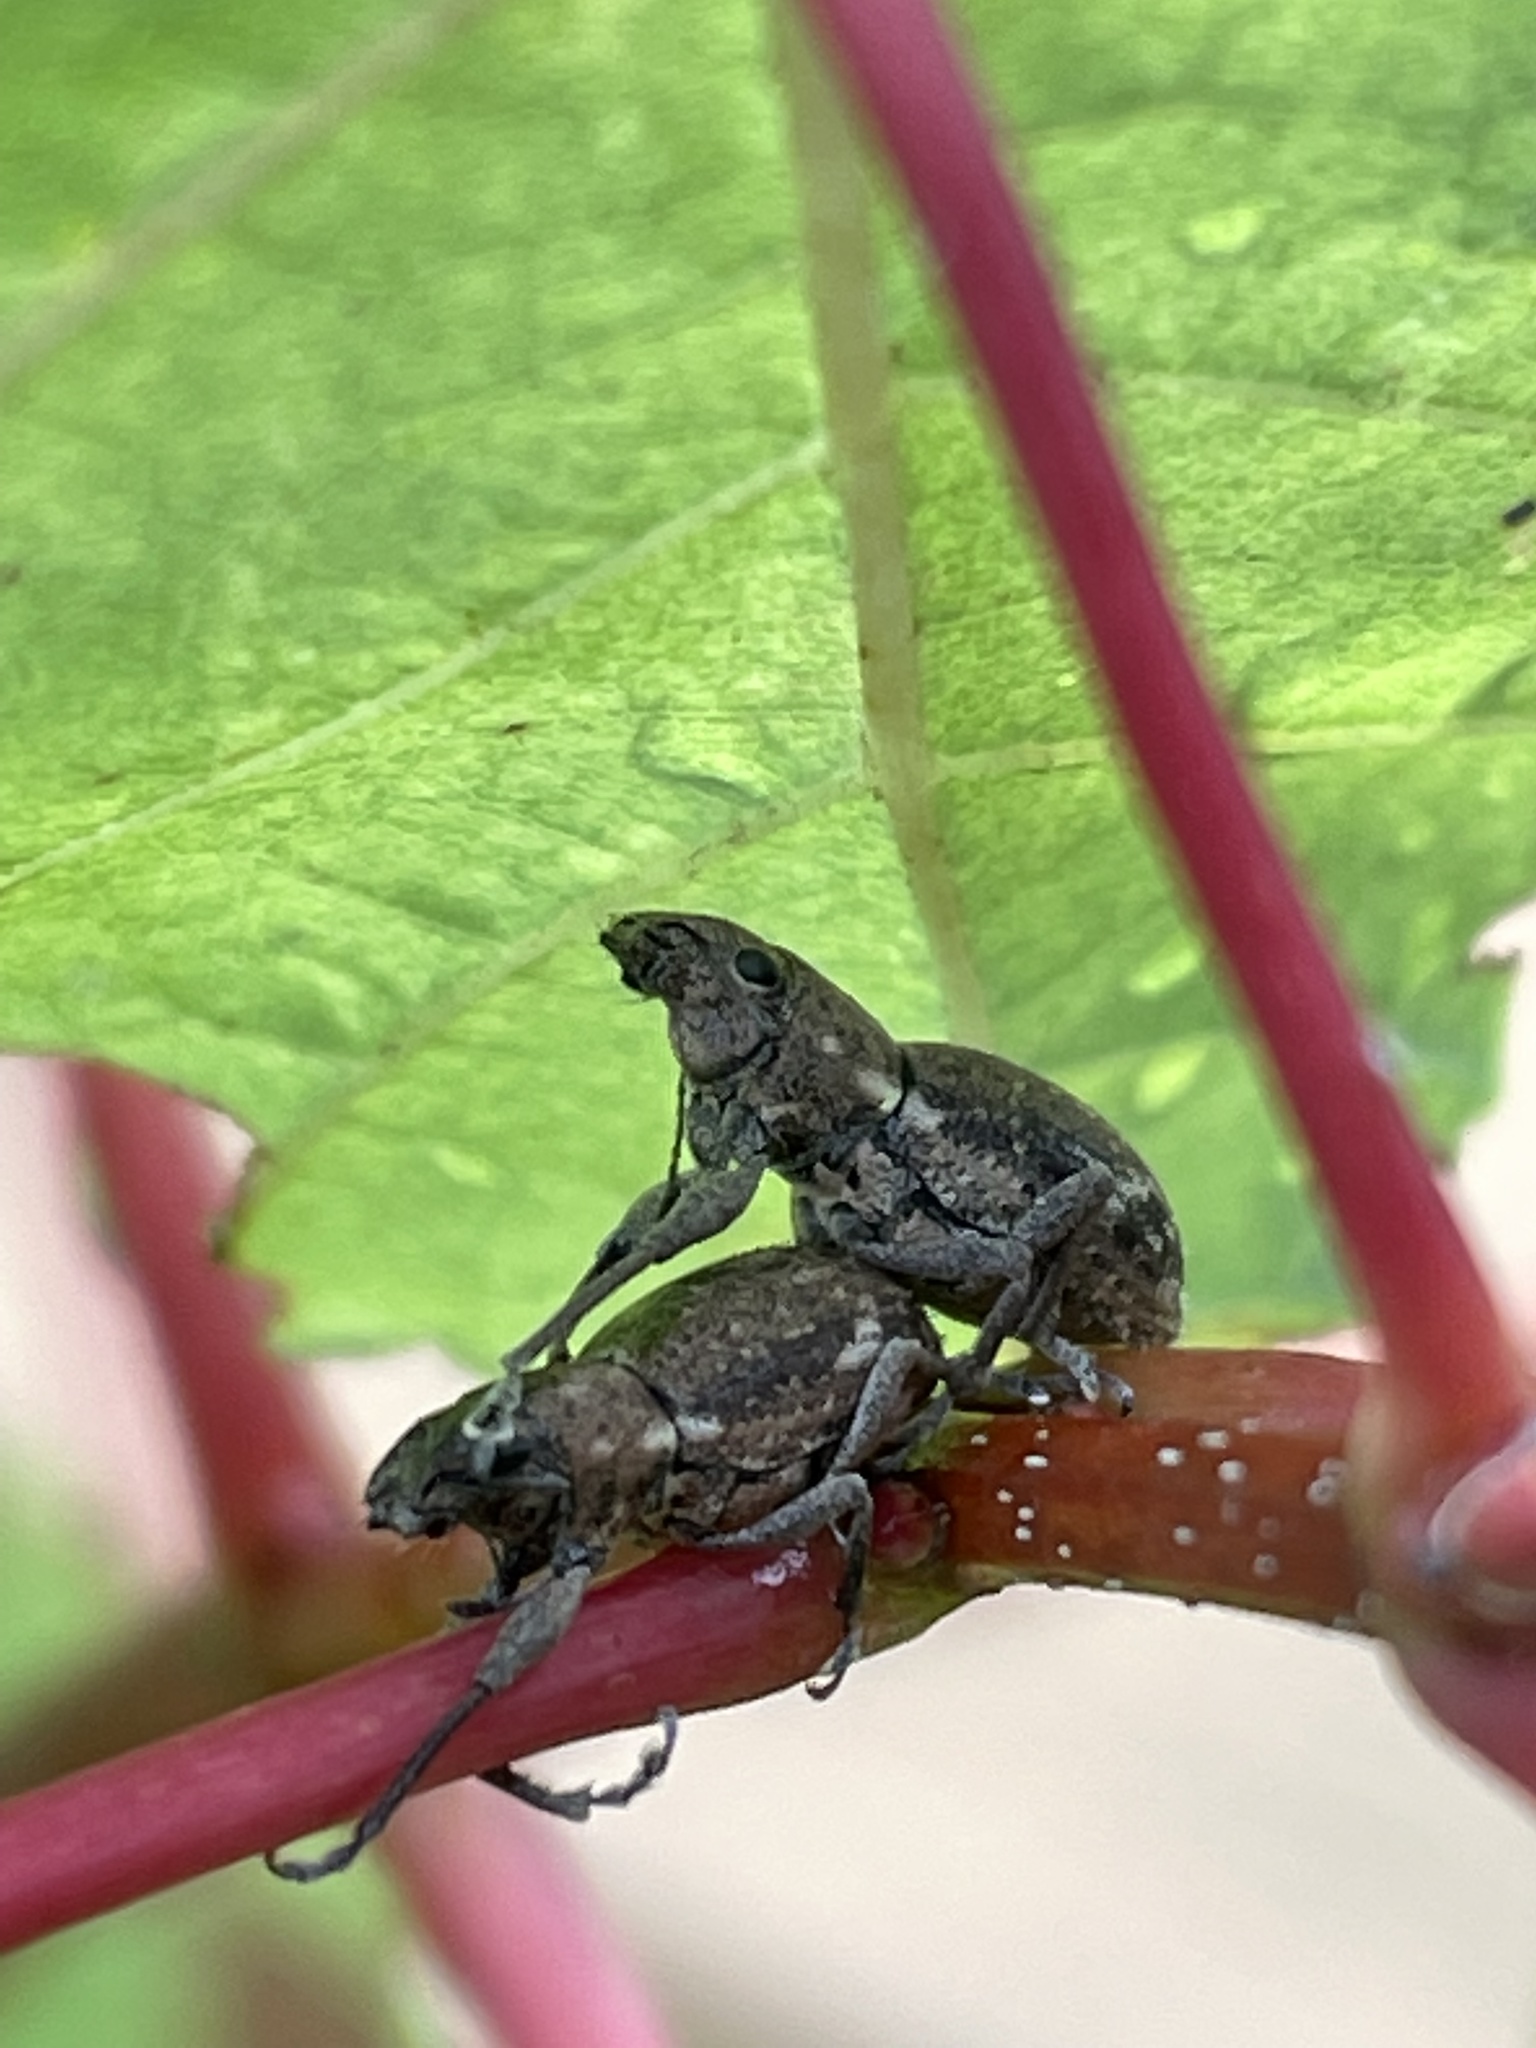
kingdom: Animalia
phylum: Arthropoda
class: Insecta
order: Coleoptera
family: Curculionidae
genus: Naupactus
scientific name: Naupactus cervinus
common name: Fuller rose beetle
